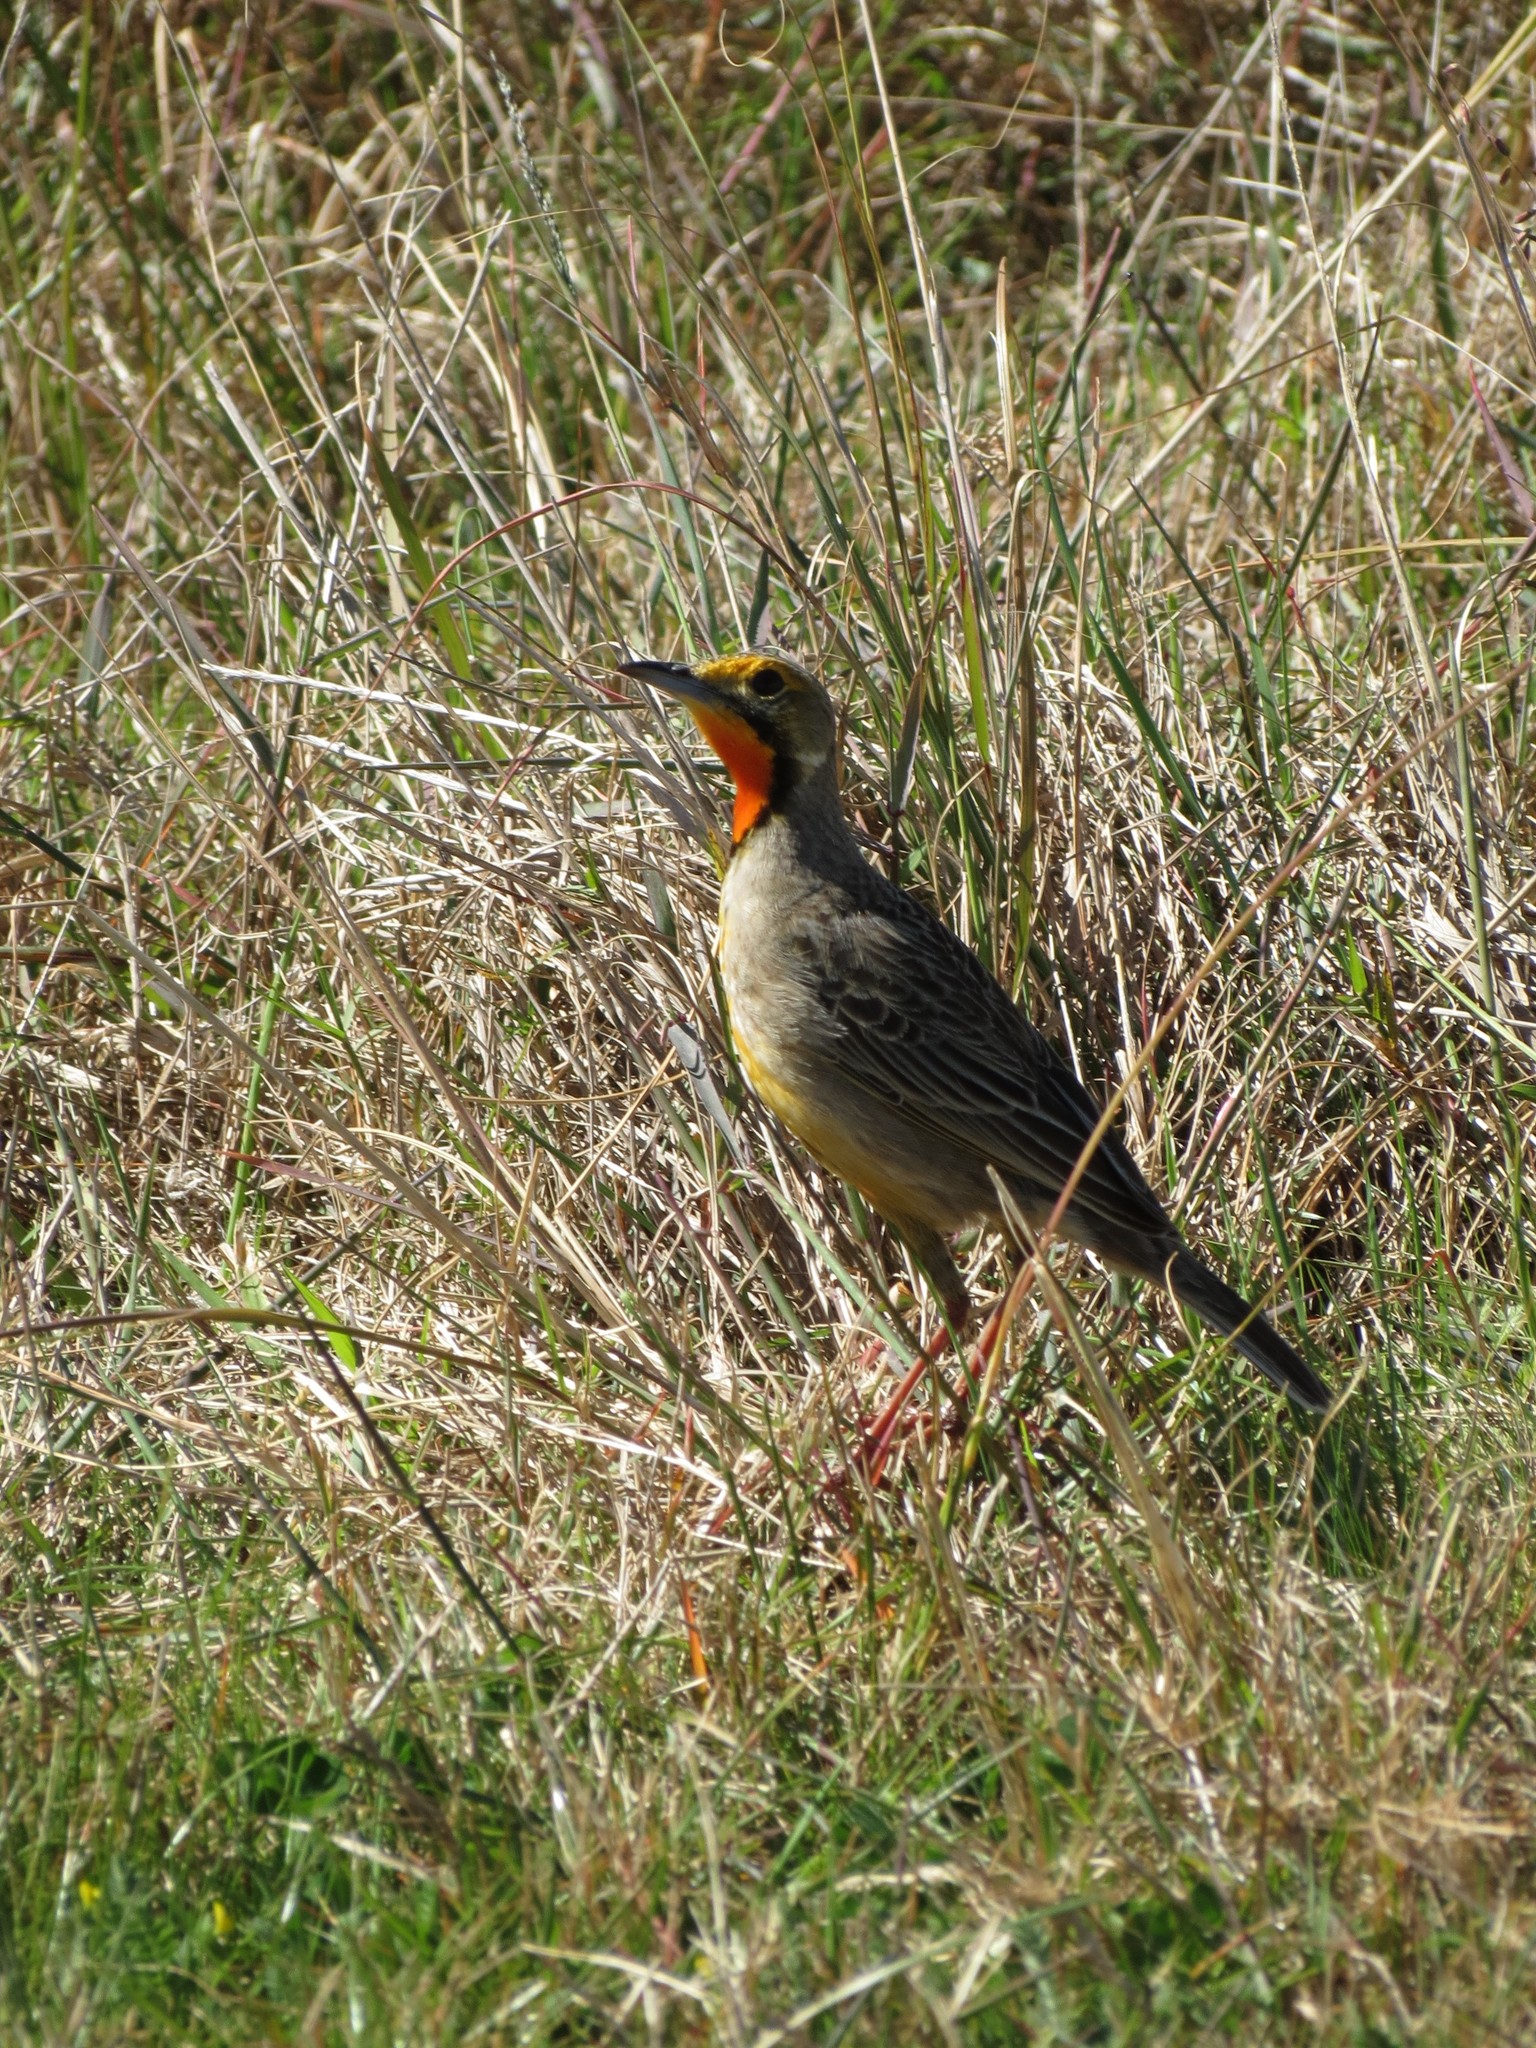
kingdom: Animalia
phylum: Chordata
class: Aves
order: Passeriformes
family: Motacillidae
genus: Macronyx
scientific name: Macronyx capensis
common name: Cape longclaw
